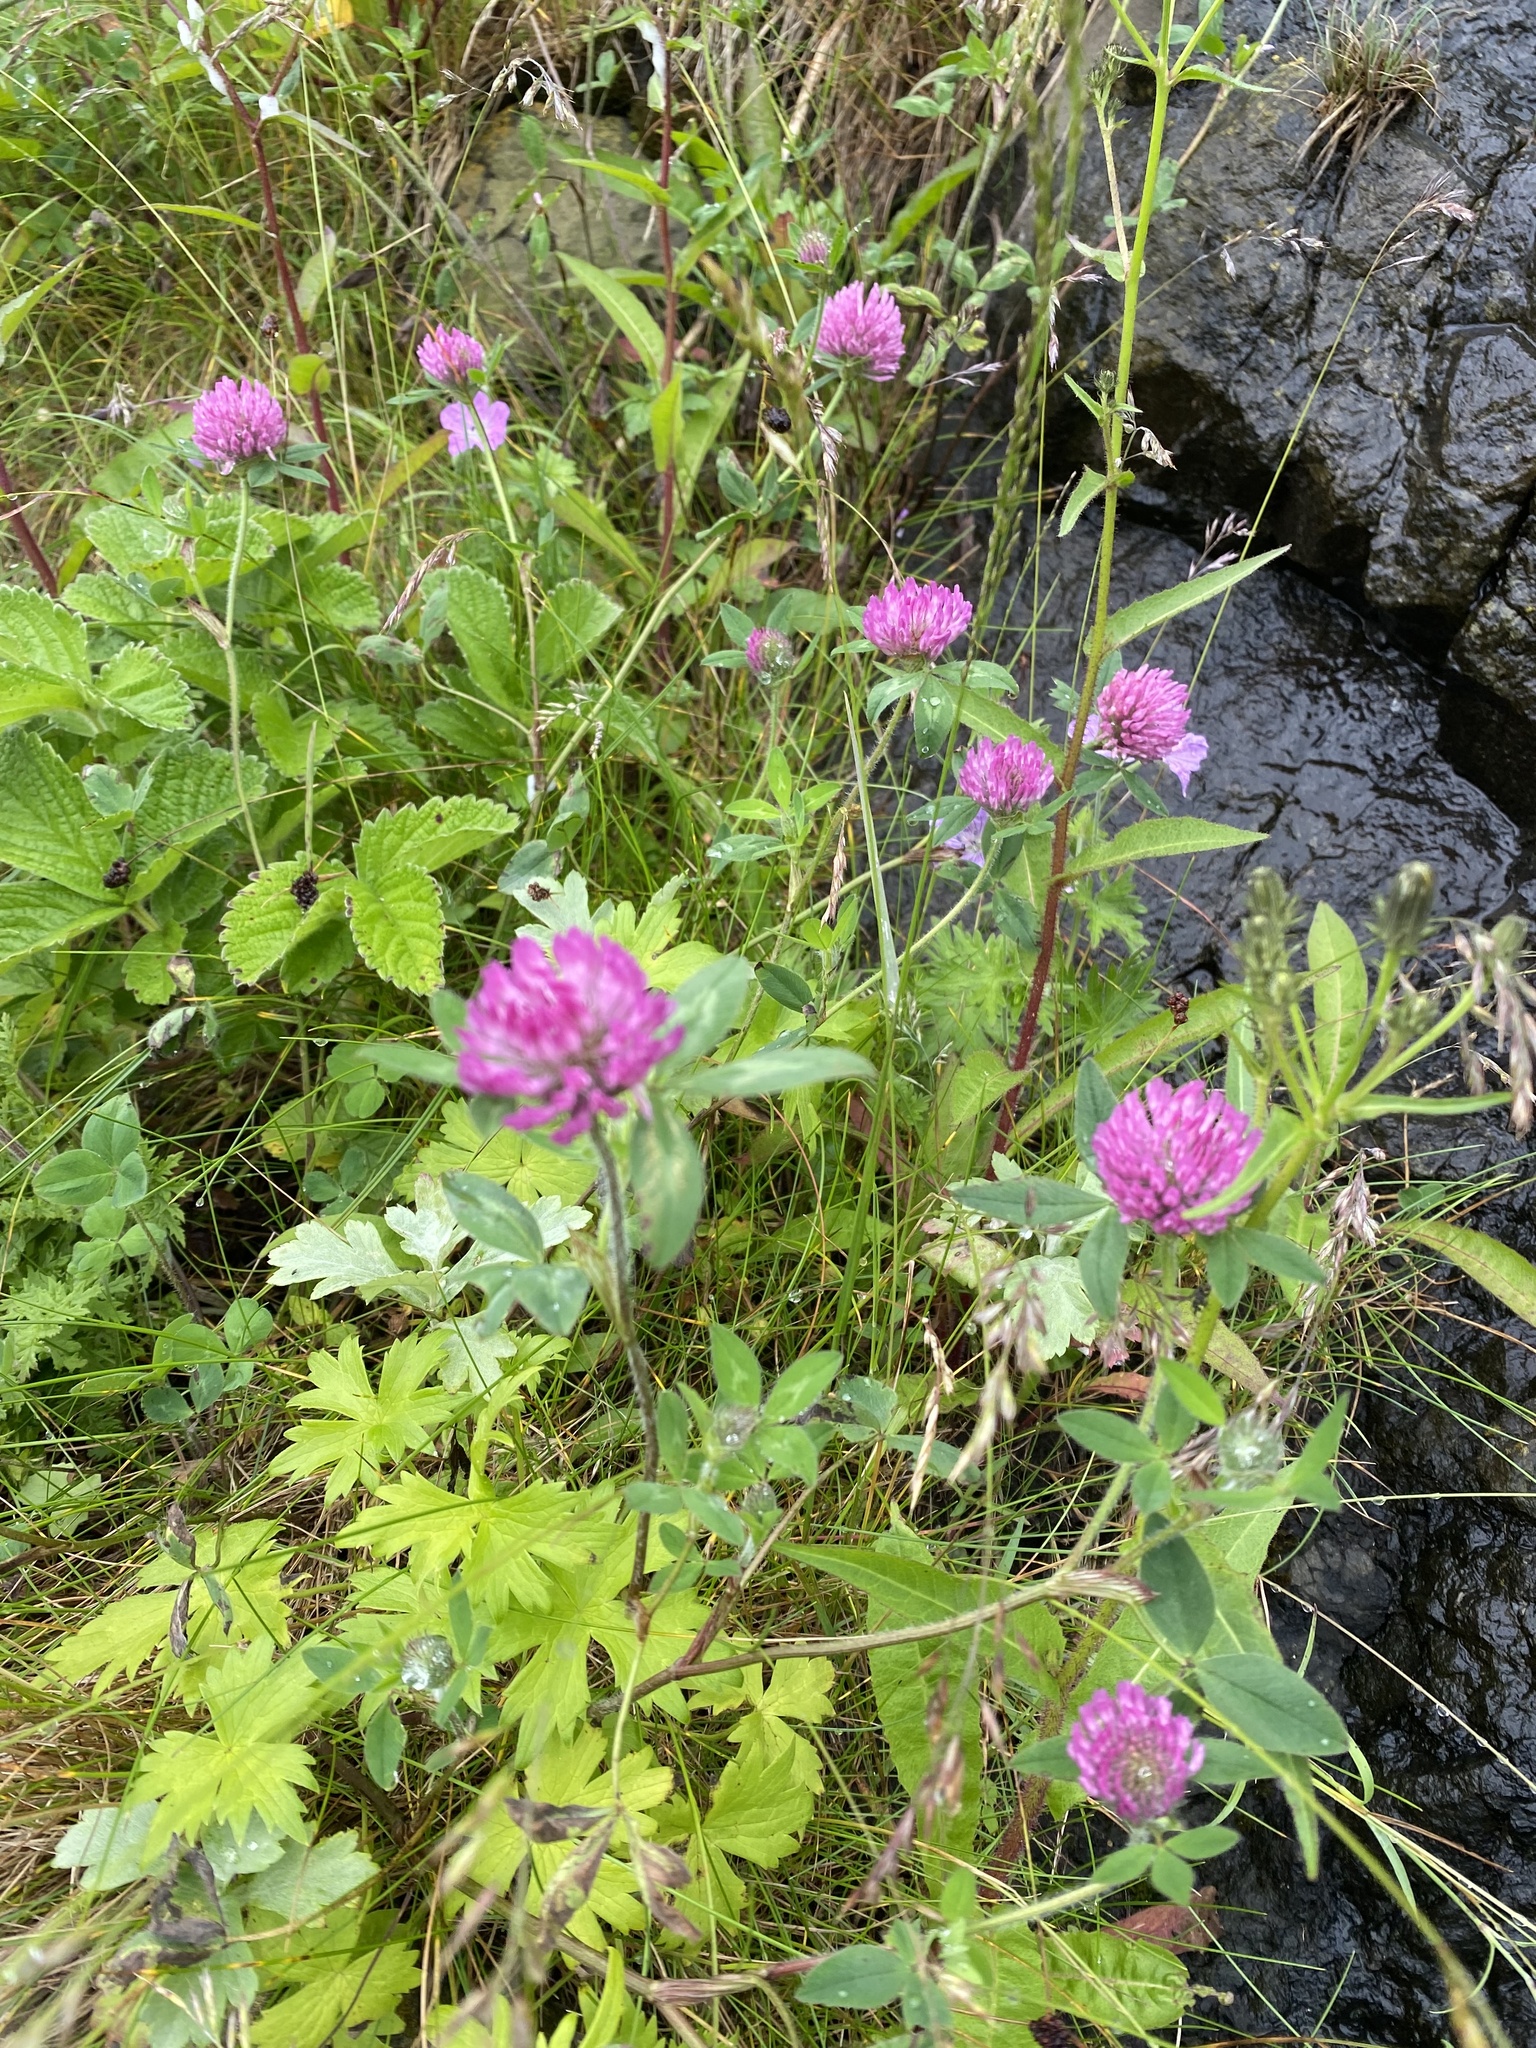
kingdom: Plantae
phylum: Tracheophyta
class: Magnoliopsida
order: Fabales
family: Fabaceae
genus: Trifolium
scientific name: Trifolium pratense
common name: Red clover
